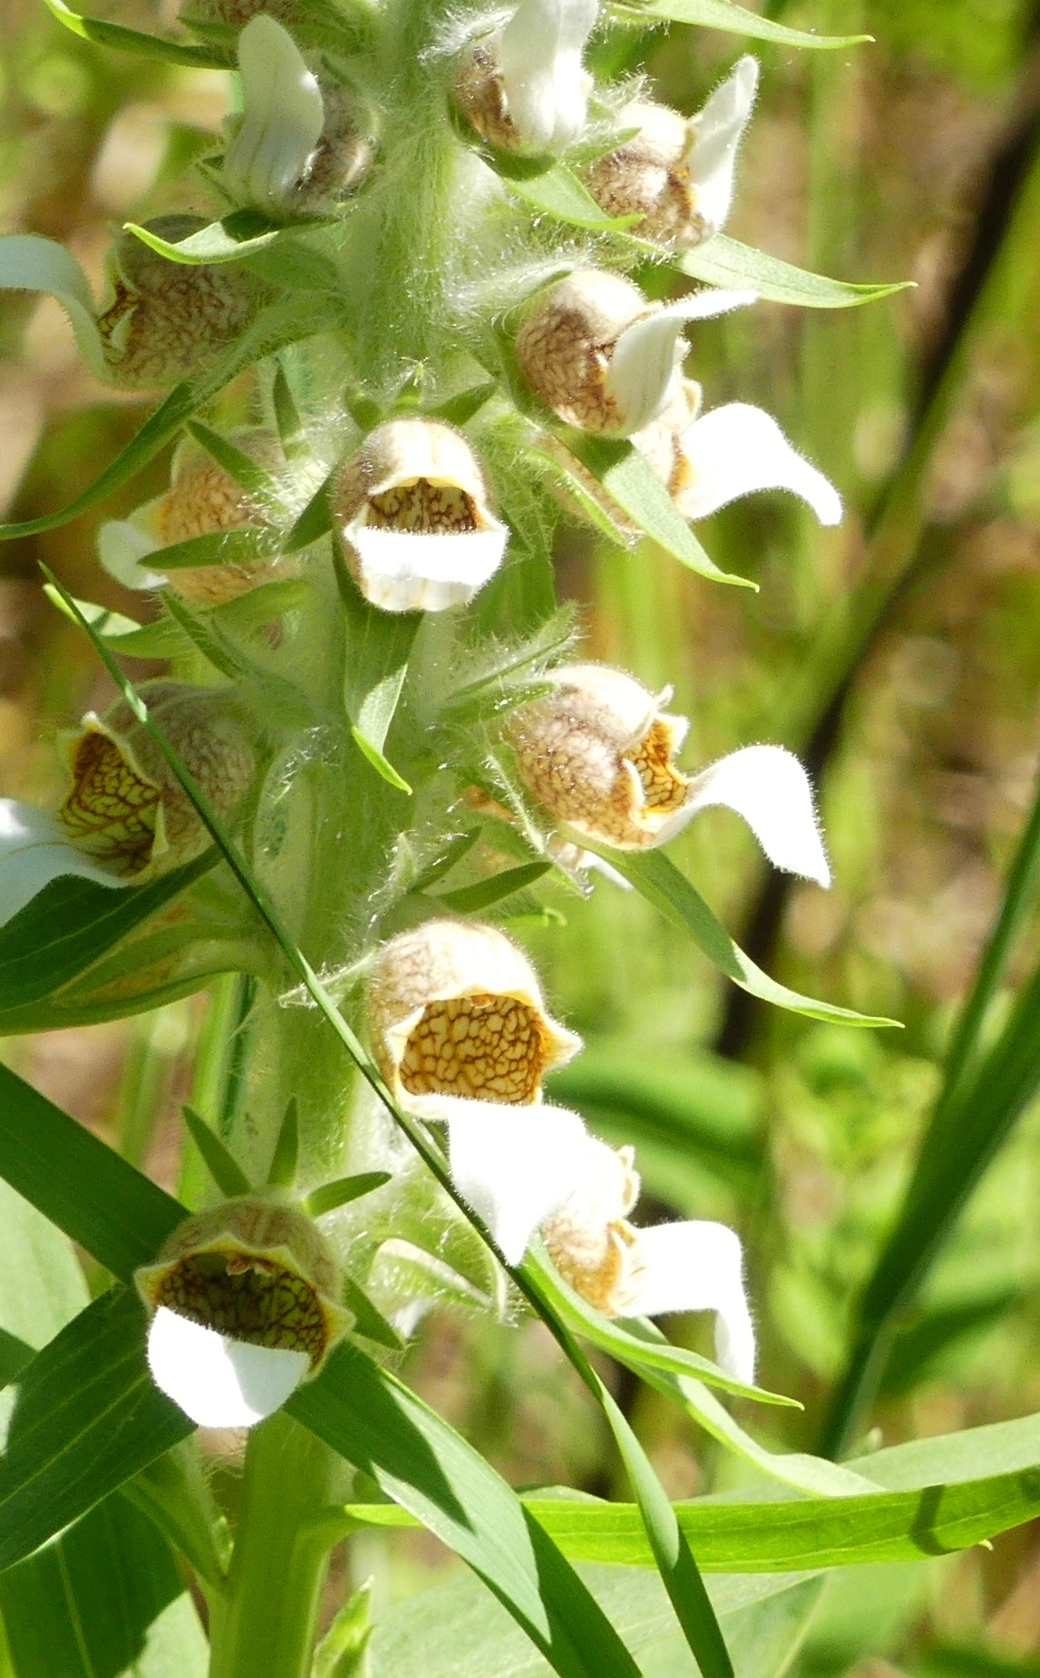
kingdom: Plantae
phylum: Tracheophyta
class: Magnoliopsida
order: Lamiales
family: Plantaginaceae
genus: Digitalis
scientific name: Digitalis lanata
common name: Grecian foxglove
